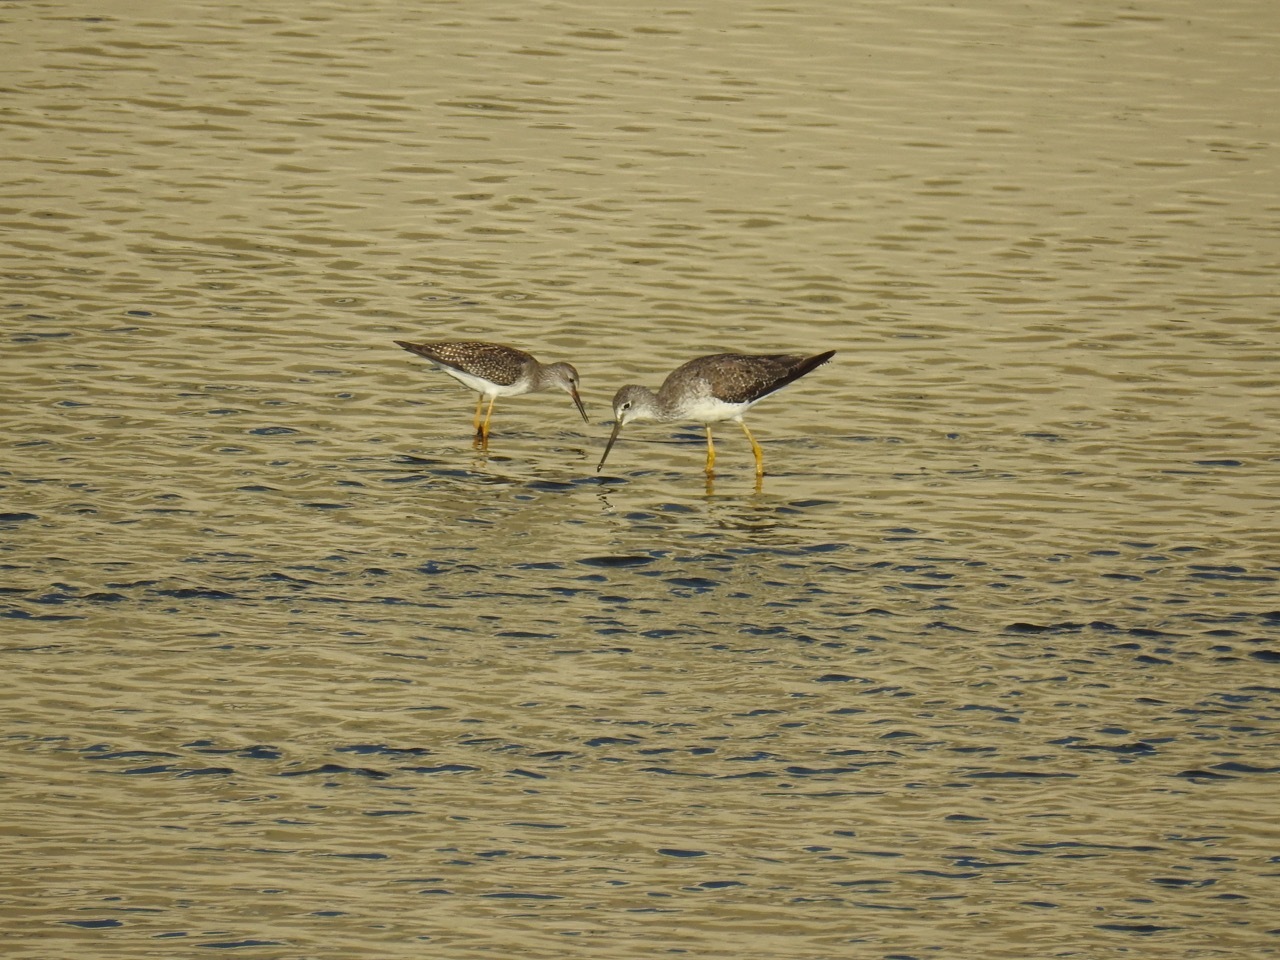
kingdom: Animalia
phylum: Chordata
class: Aves
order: Charadriiformes
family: Scolopacidae
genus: Tringa
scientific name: Tringa flavipes
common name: Lesser yellowlegs
